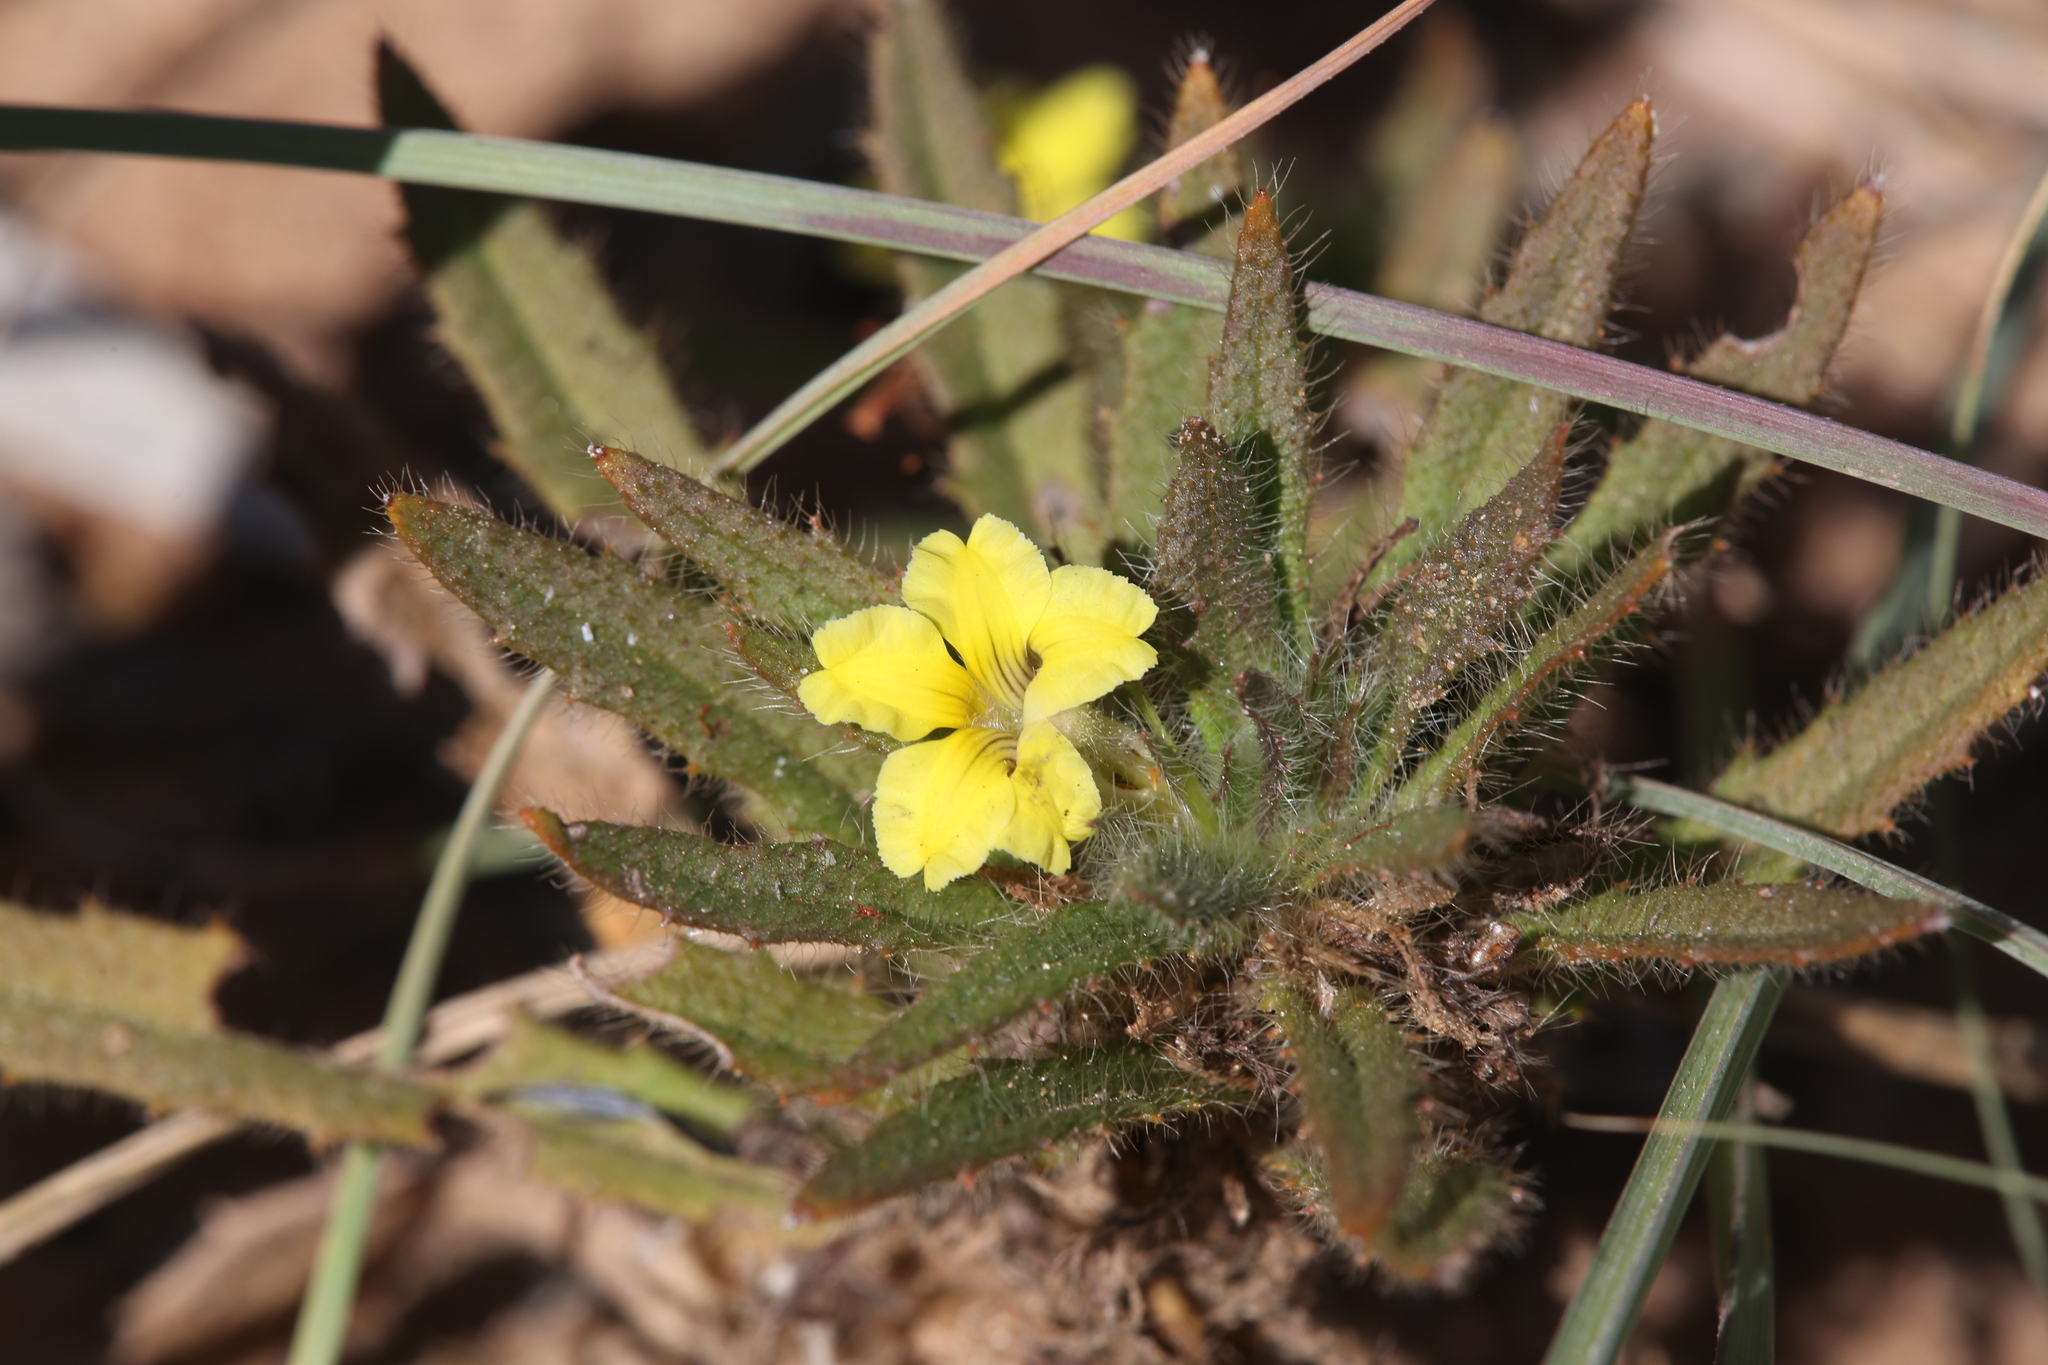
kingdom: Plantae
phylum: Tracheophyta
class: Magnoliopsida
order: Asterales
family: Goodeniaceae
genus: Goodenia
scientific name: Goodenia sepalosa
